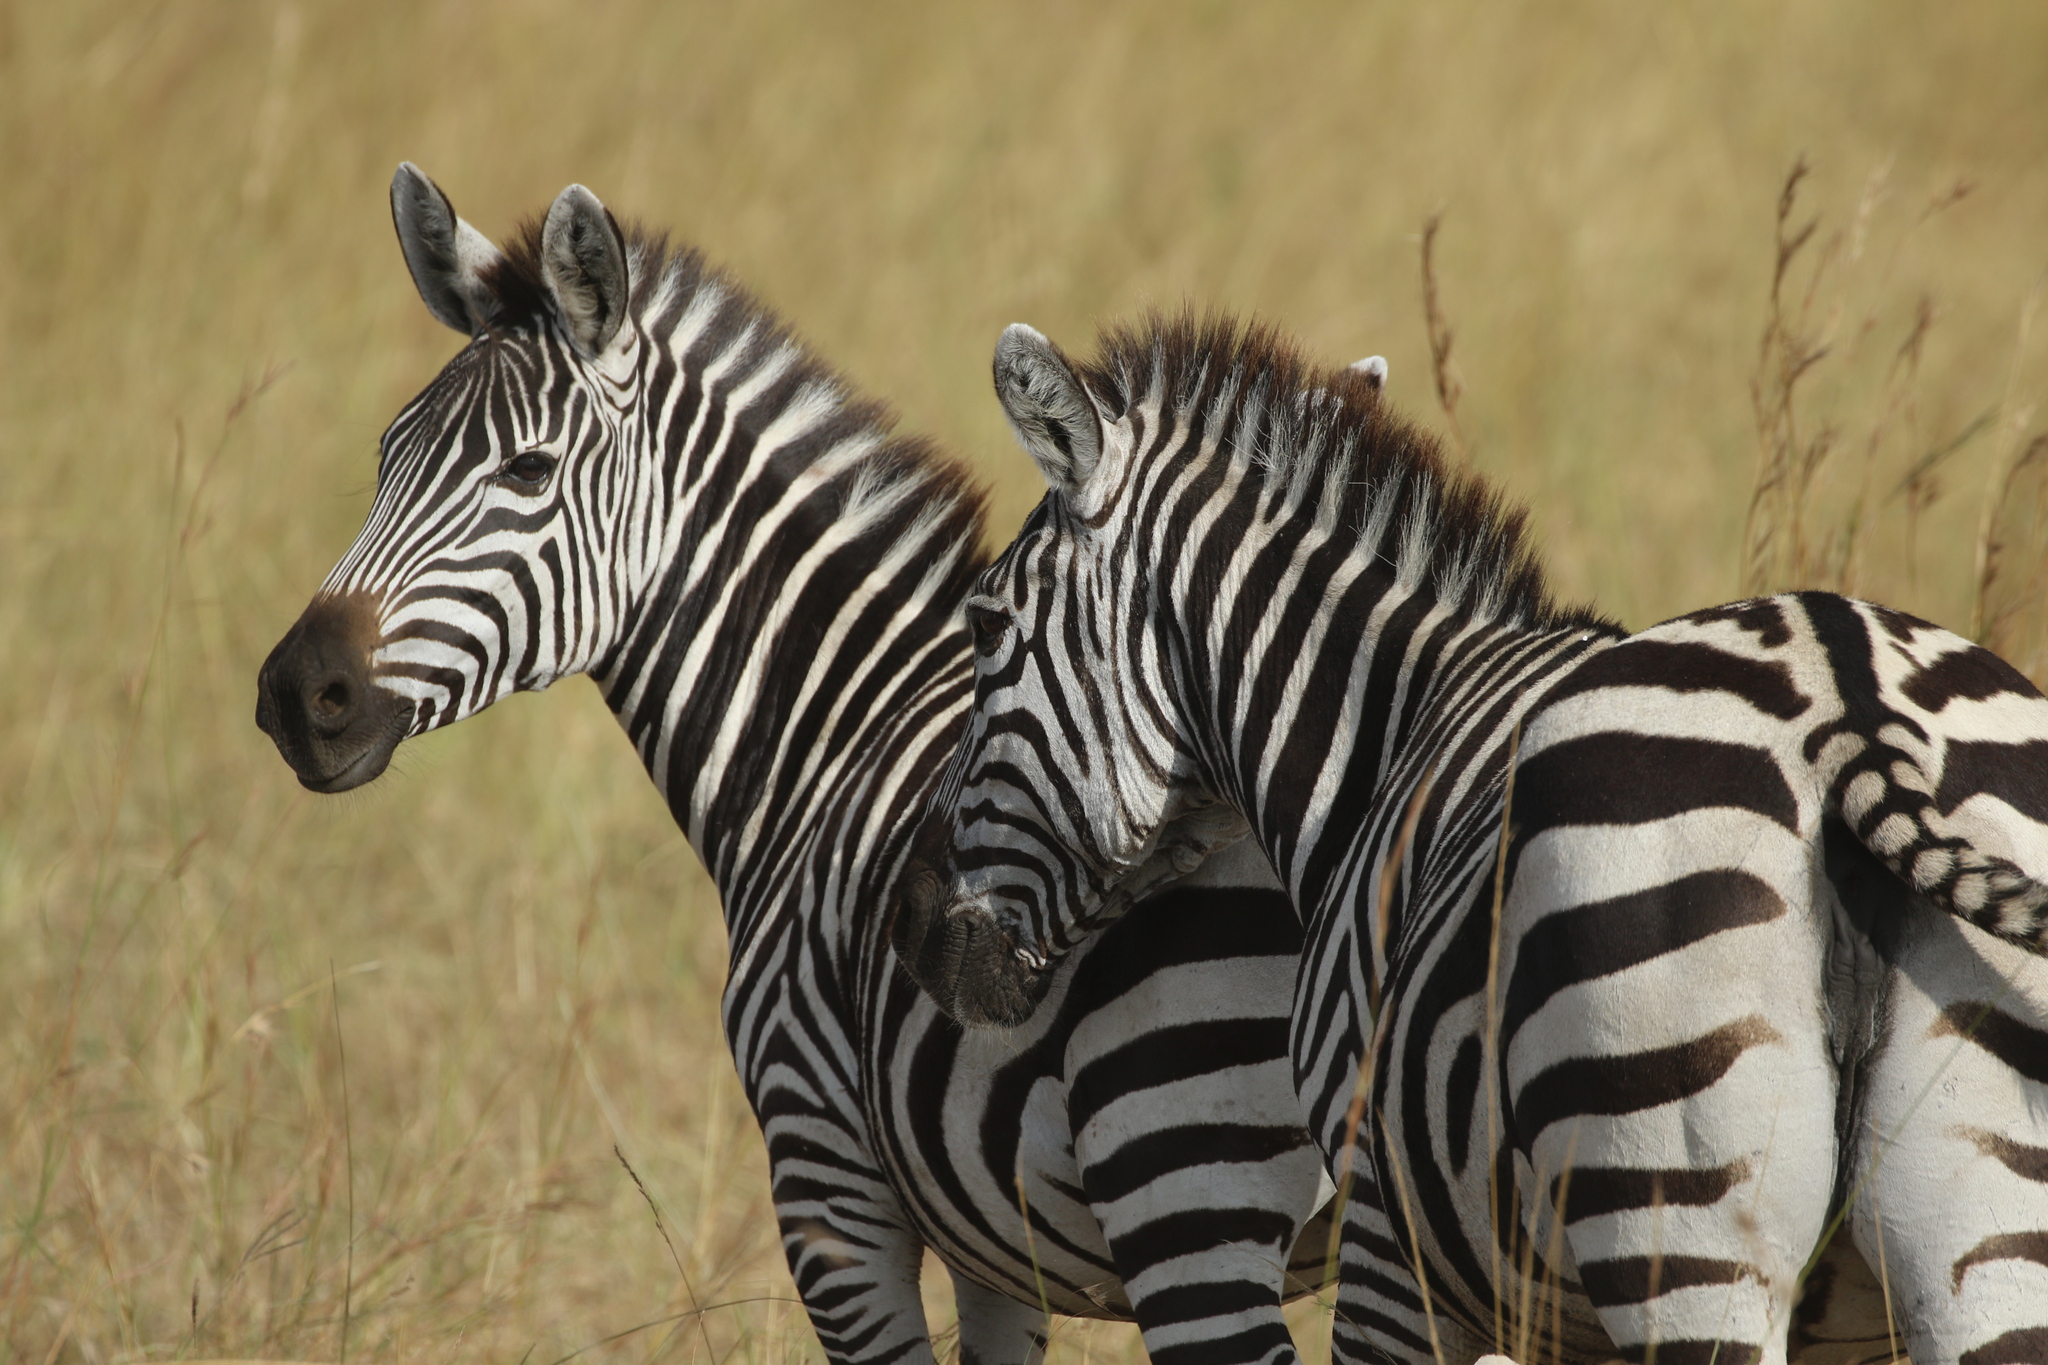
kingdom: Animalia
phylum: Chordata
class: Mammalia
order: Perissodactyla
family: Equidae
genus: Equus
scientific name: Equus quagga
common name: Plains zebra
